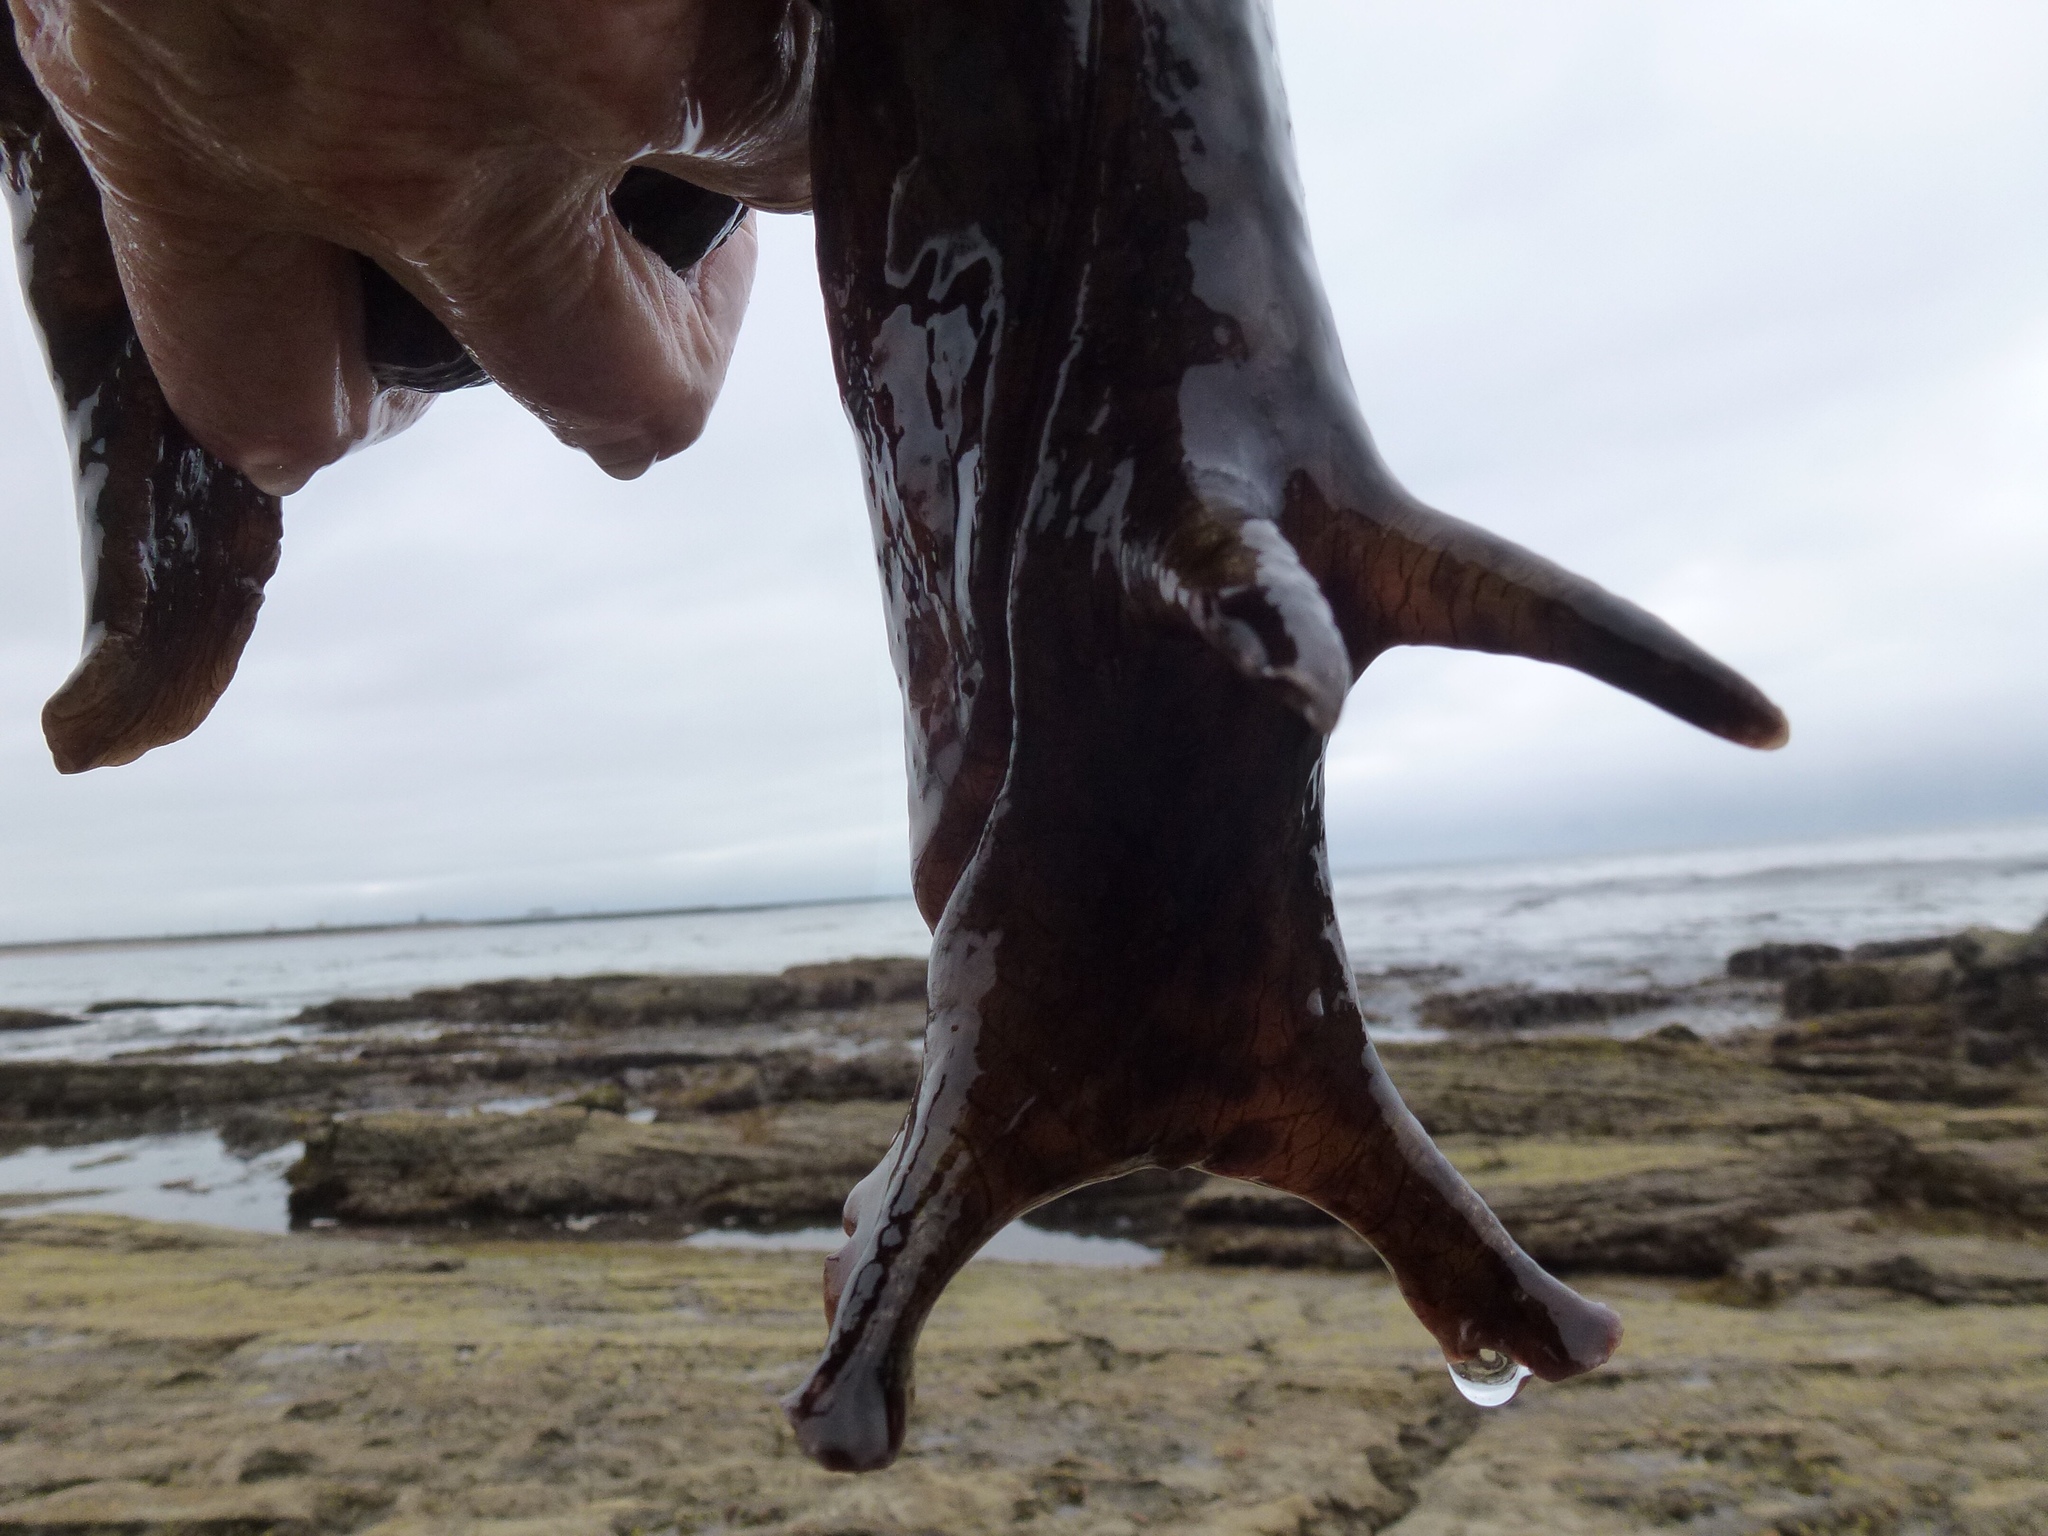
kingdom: Animalia
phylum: Mollusca
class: Gastropoda
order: Aplysiida
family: Aplysiidae
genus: Aplysia
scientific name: Aplysia californica
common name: California seahare
